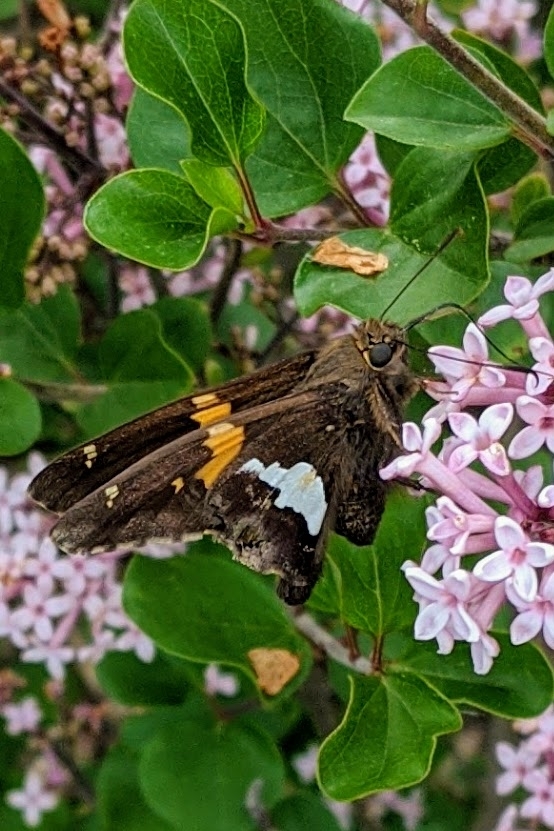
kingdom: Animalia
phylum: Arthropoda
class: Insecta
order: Lepidoptera
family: Hesperiidae
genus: Epargyreus
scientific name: Epargyreus clarus
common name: Silver-spotted skipper
